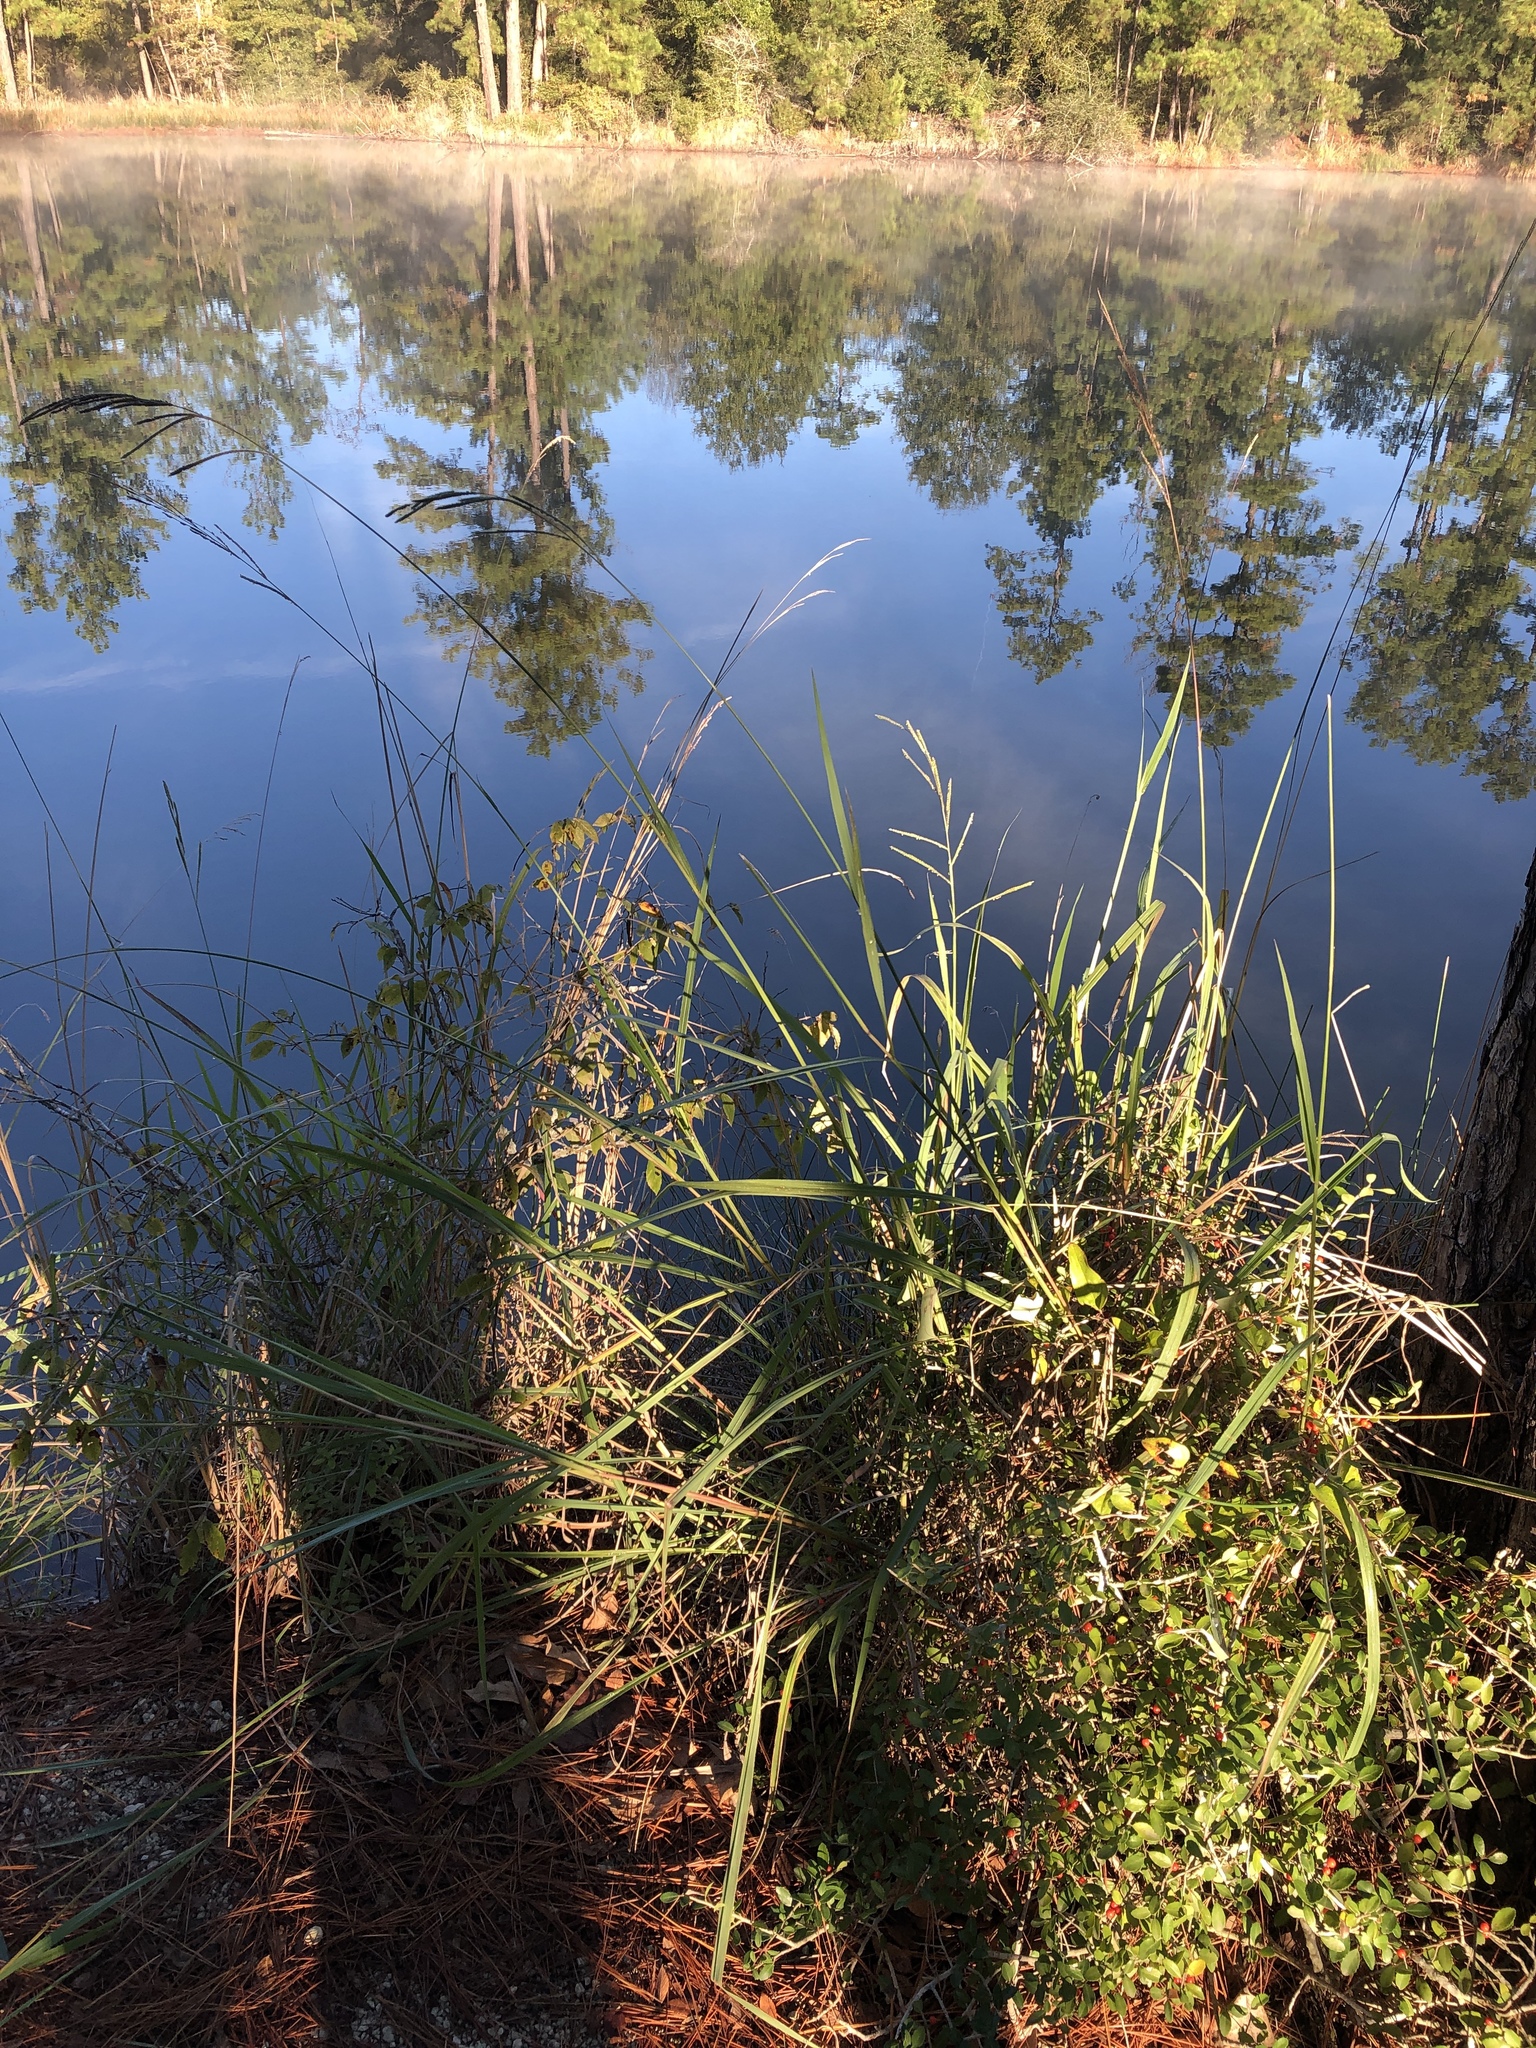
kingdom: Plantae
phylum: Tracheophyta
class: Liliopsida
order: Poales
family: Poaceae
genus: Paspalum
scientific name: Paspalum urvillei
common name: Vasey's grass
